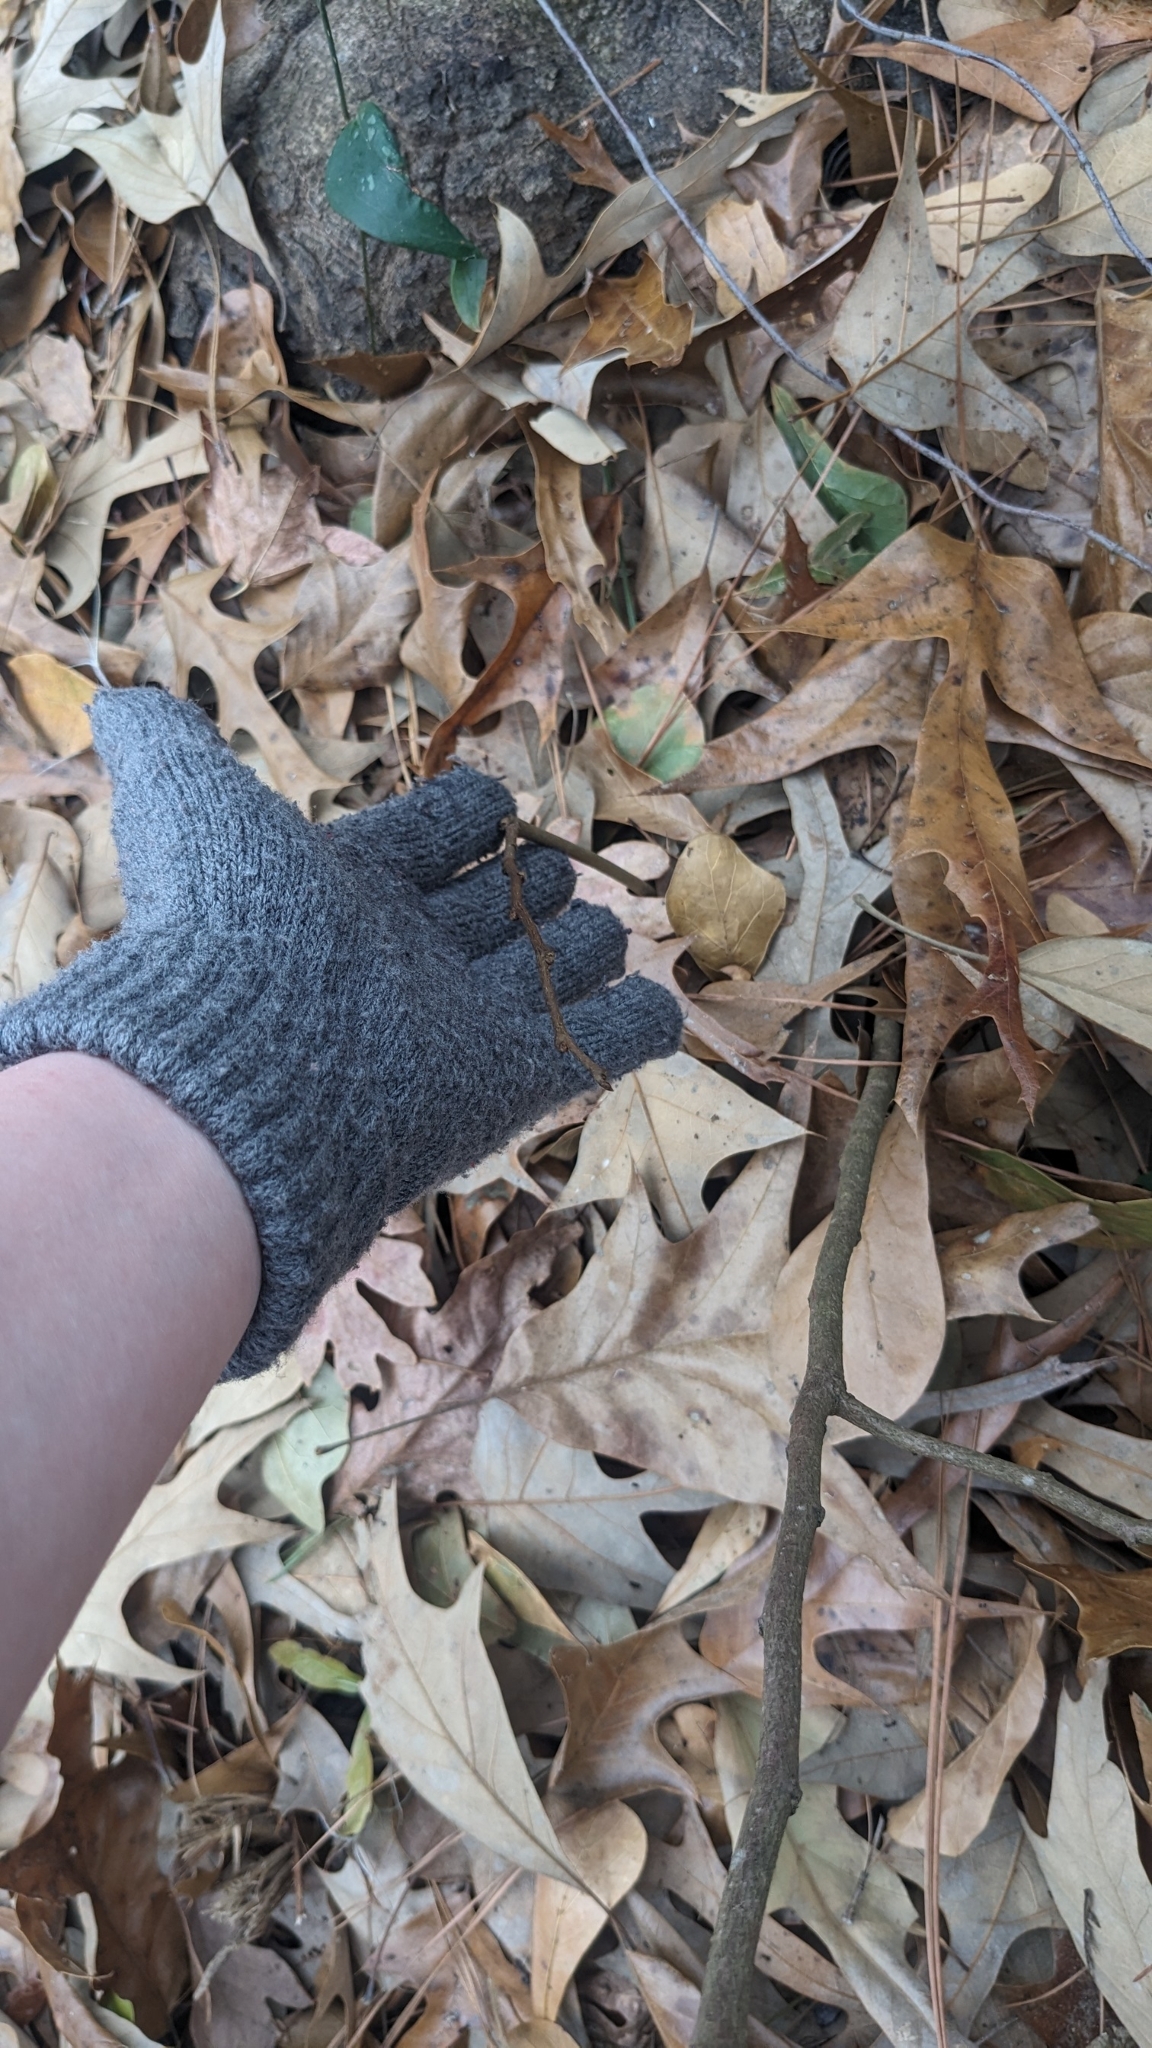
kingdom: Plantae
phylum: Tracheophyta
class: Magnoliopsida
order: Magnoliales
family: Annonaceae
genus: Asimina
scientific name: Asimina parviflora
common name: Dwarf pawpaw
